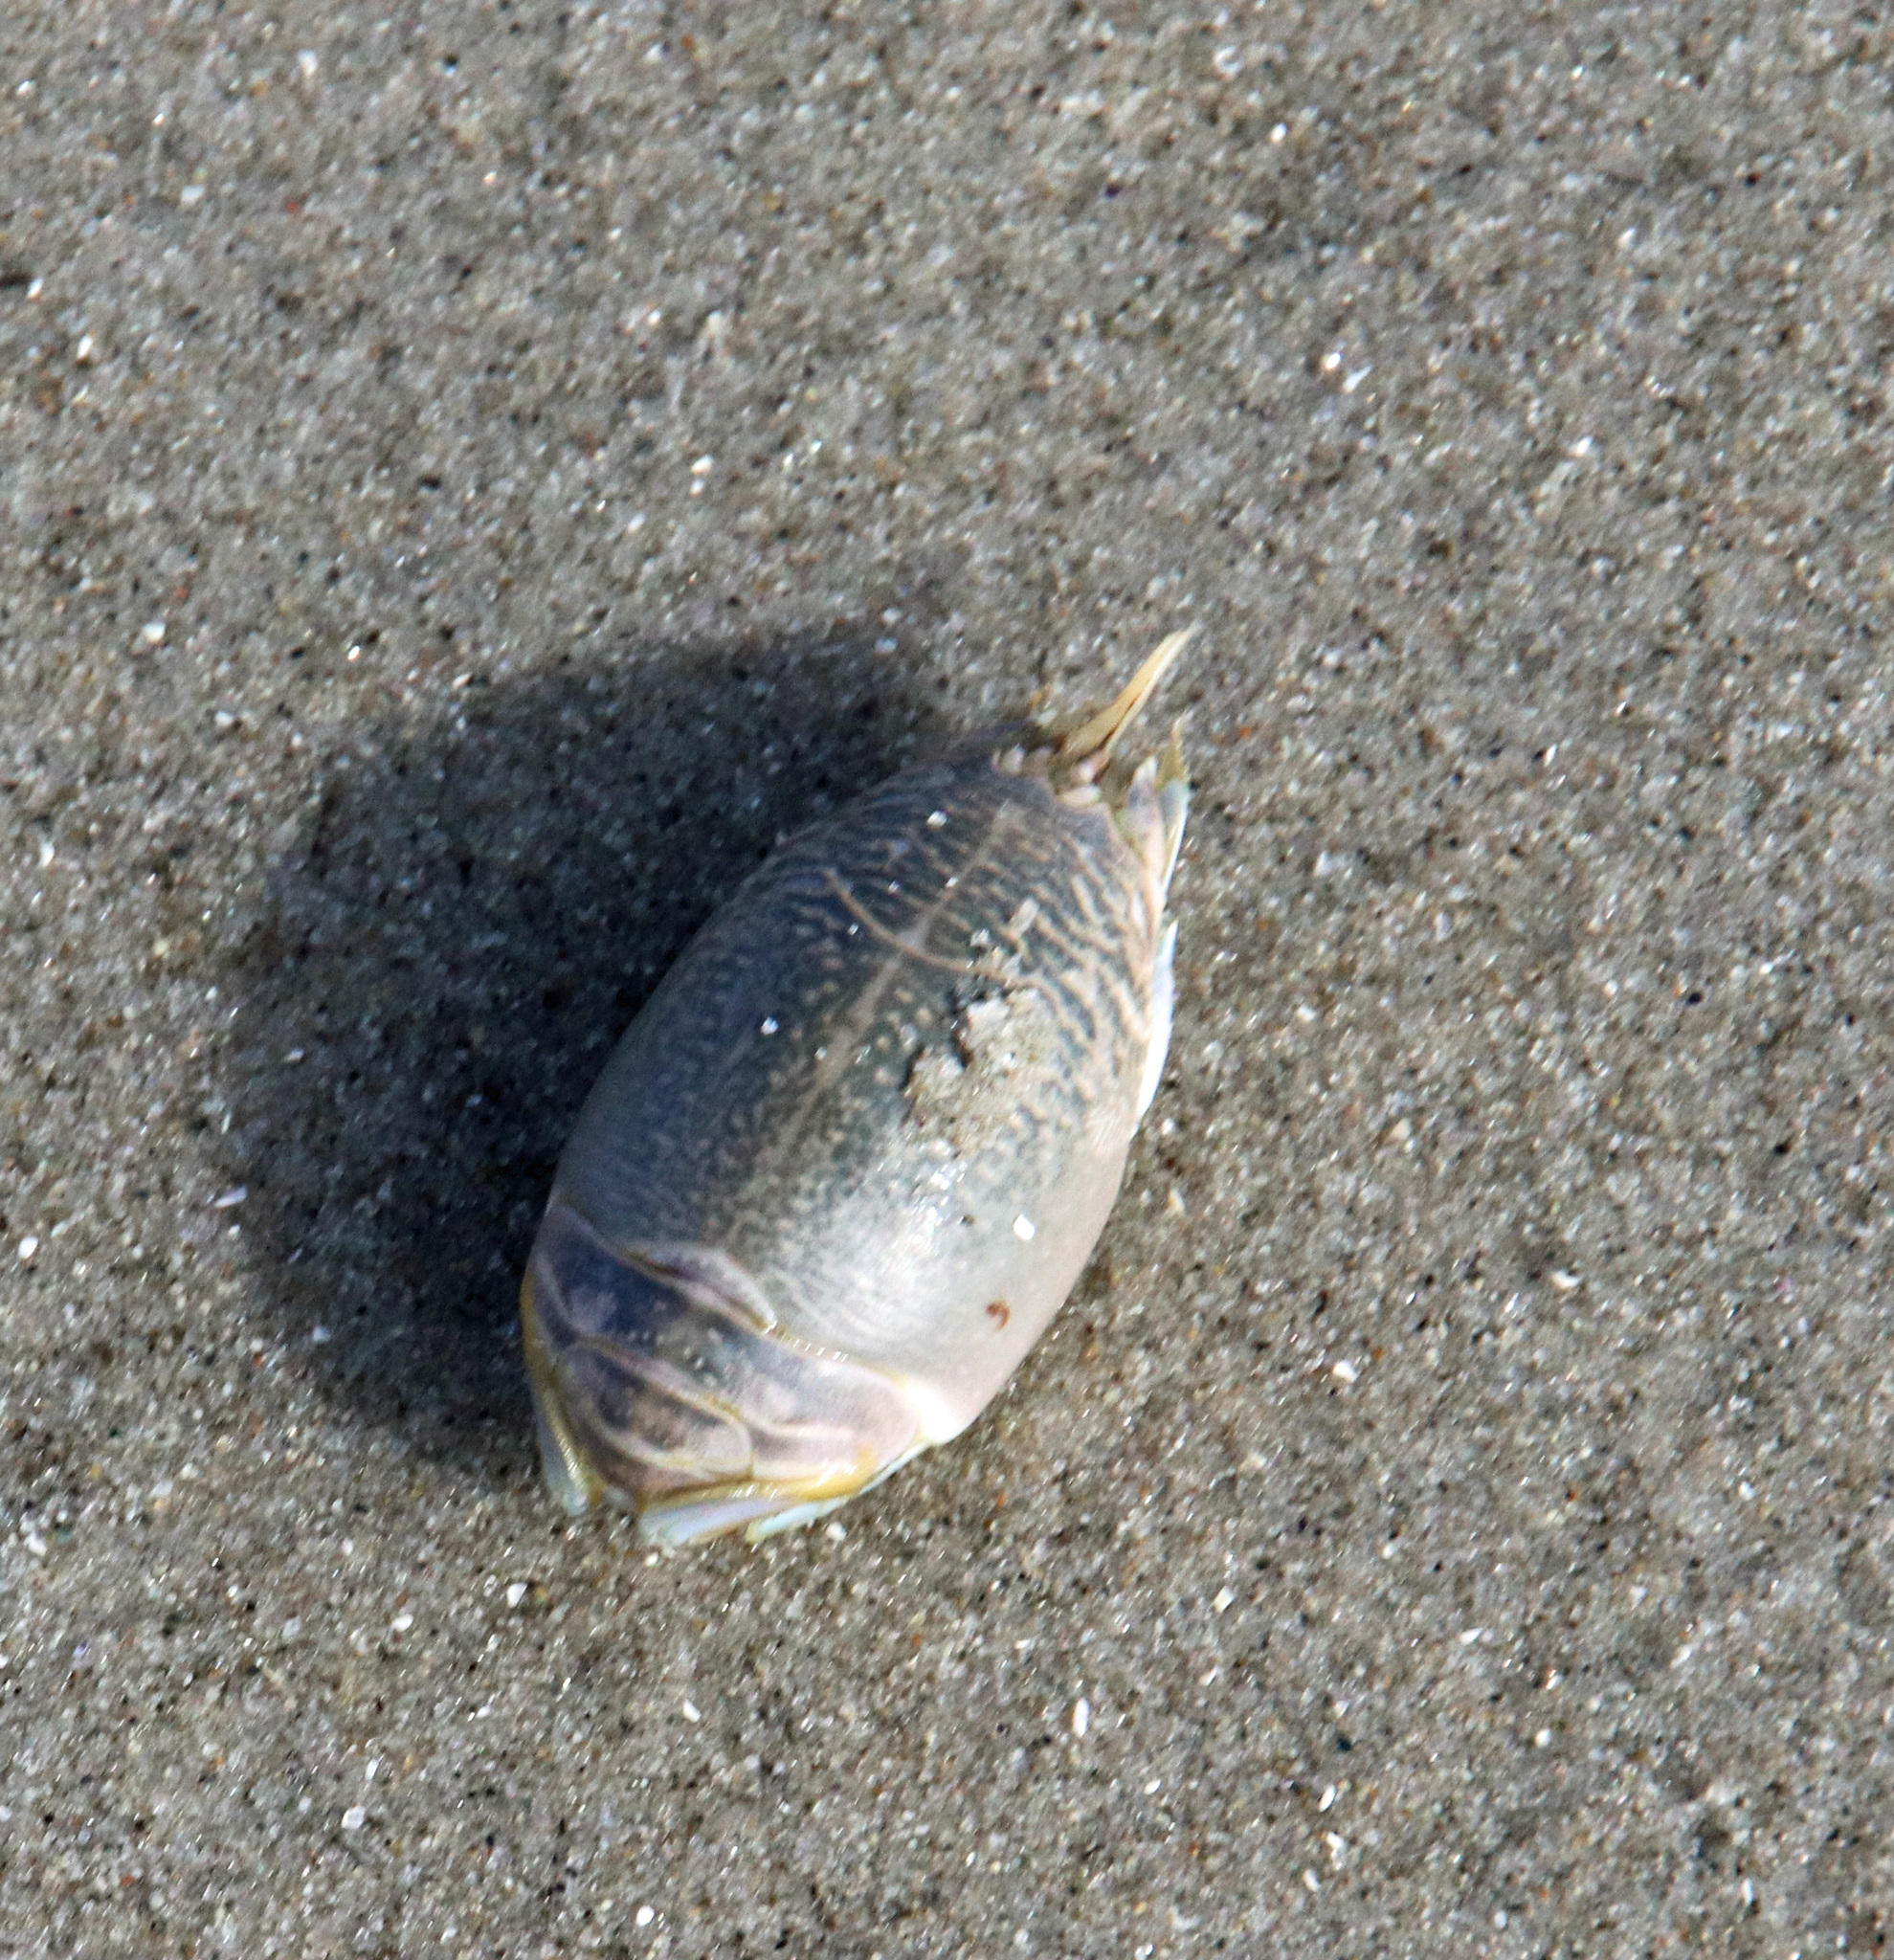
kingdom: Animalia
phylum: Arthropoda
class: Malacostraca
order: Decapoda
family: Hippidae
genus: Emerita
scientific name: Emerita talpoida
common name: Atlantic sand crab
